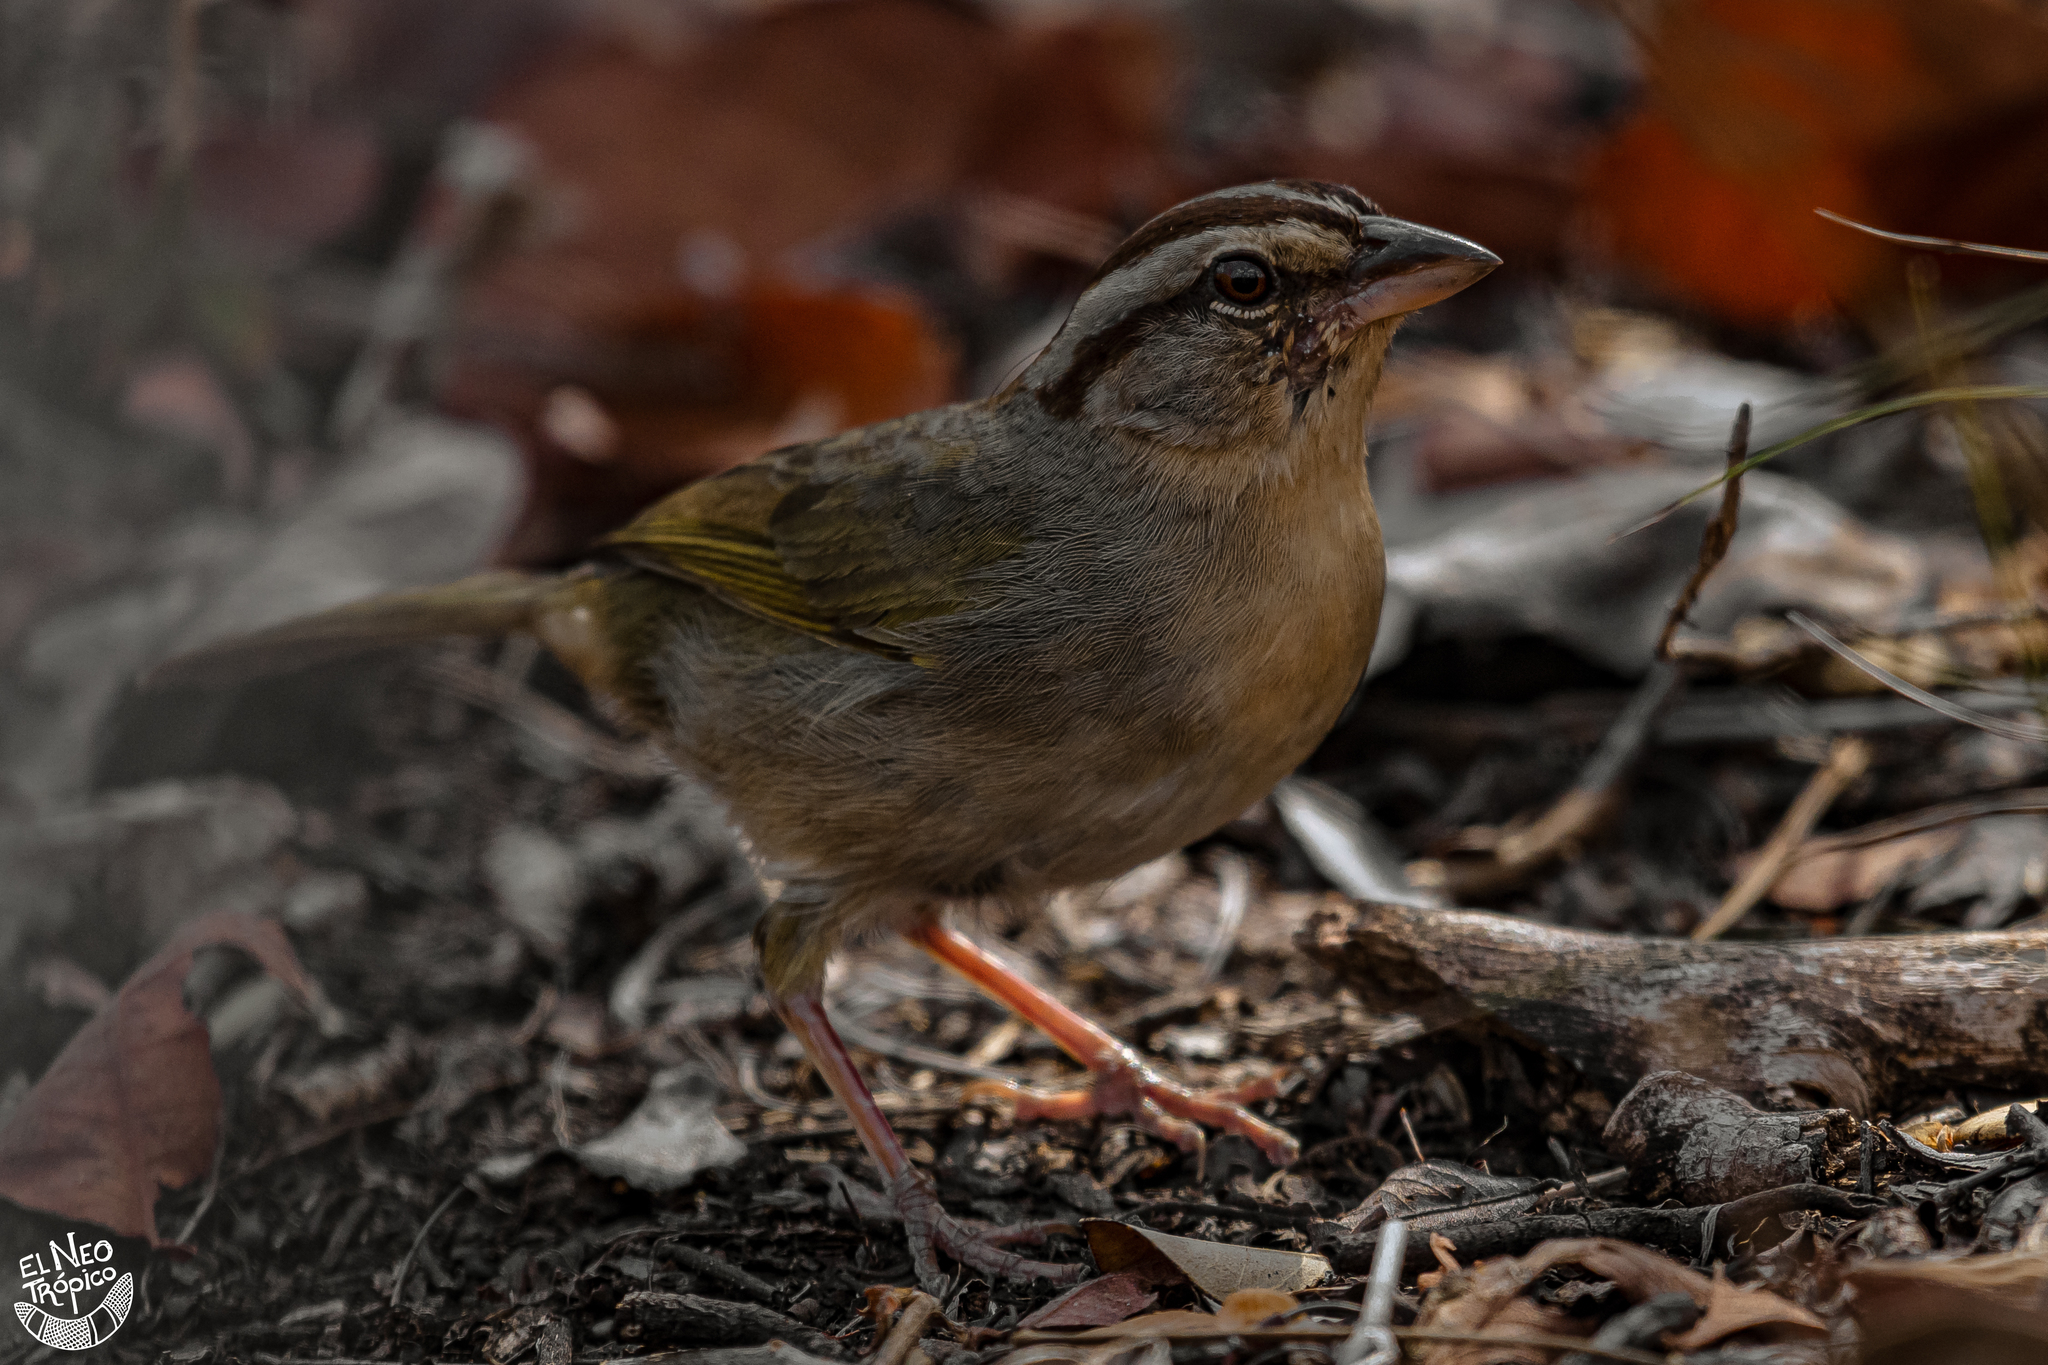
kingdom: Animalia
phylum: Chordata
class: Aves
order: Passeriformes
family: Passerellidae
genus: Arremonops
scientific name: Arremonops rufivirgatus
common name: Olive sparrow
